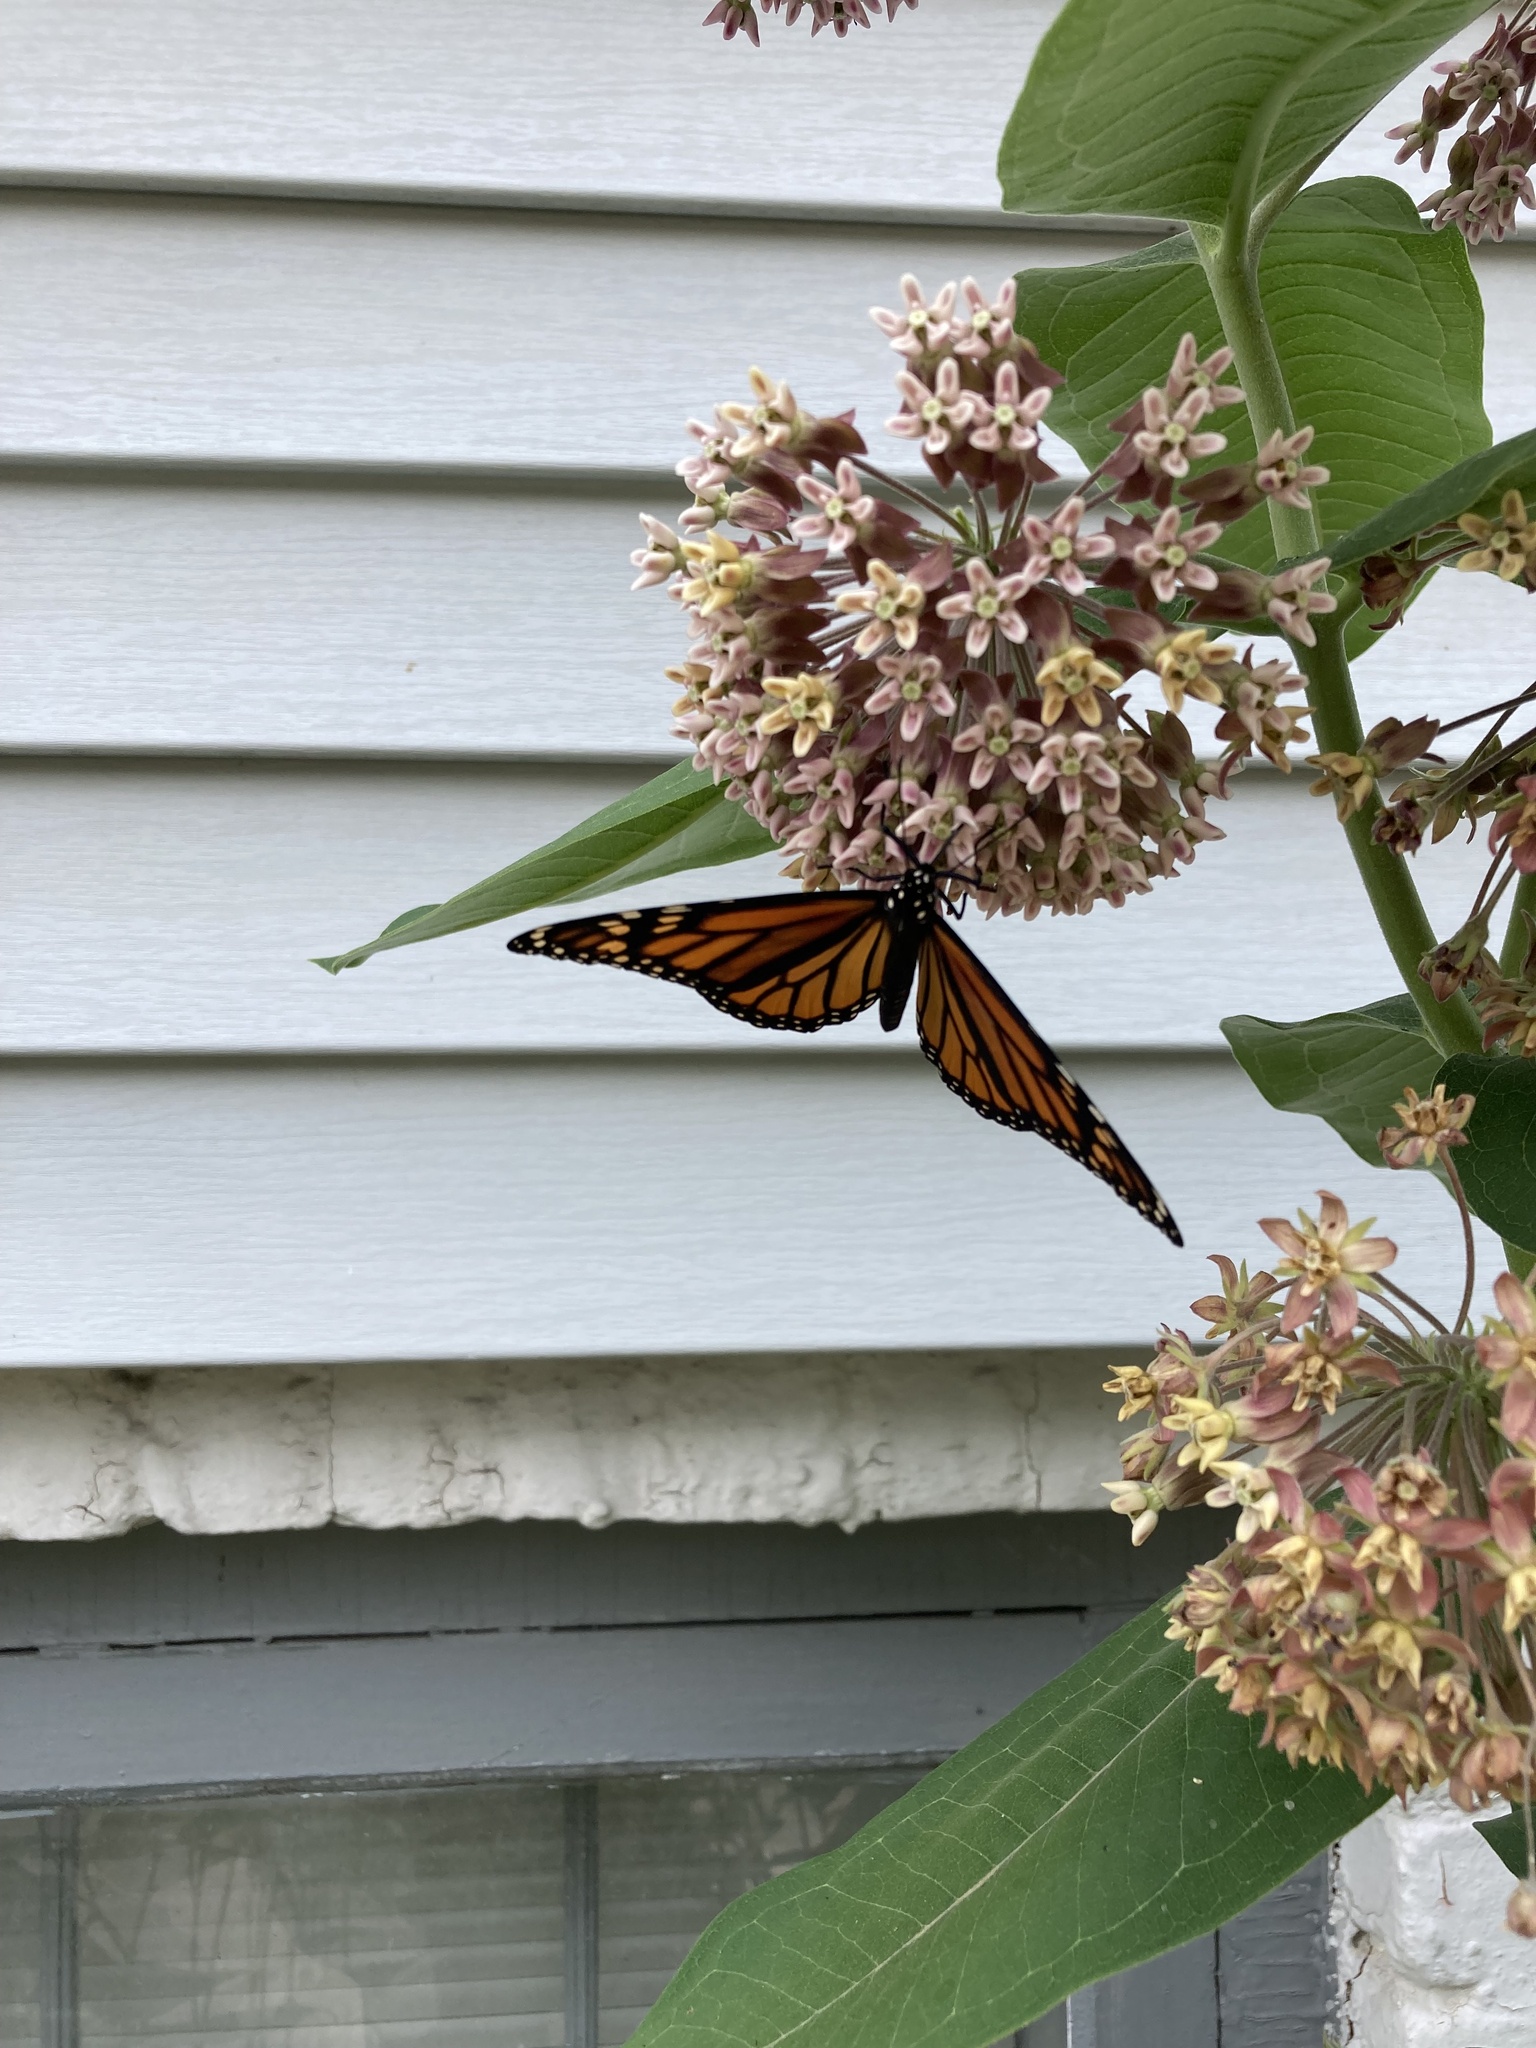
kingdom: Animalia
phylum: Arthropoda
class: Insecta
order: Lepidoptera
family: Nymphalidae
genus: Danaus
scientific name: Danaus plexippus
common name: Monarch
